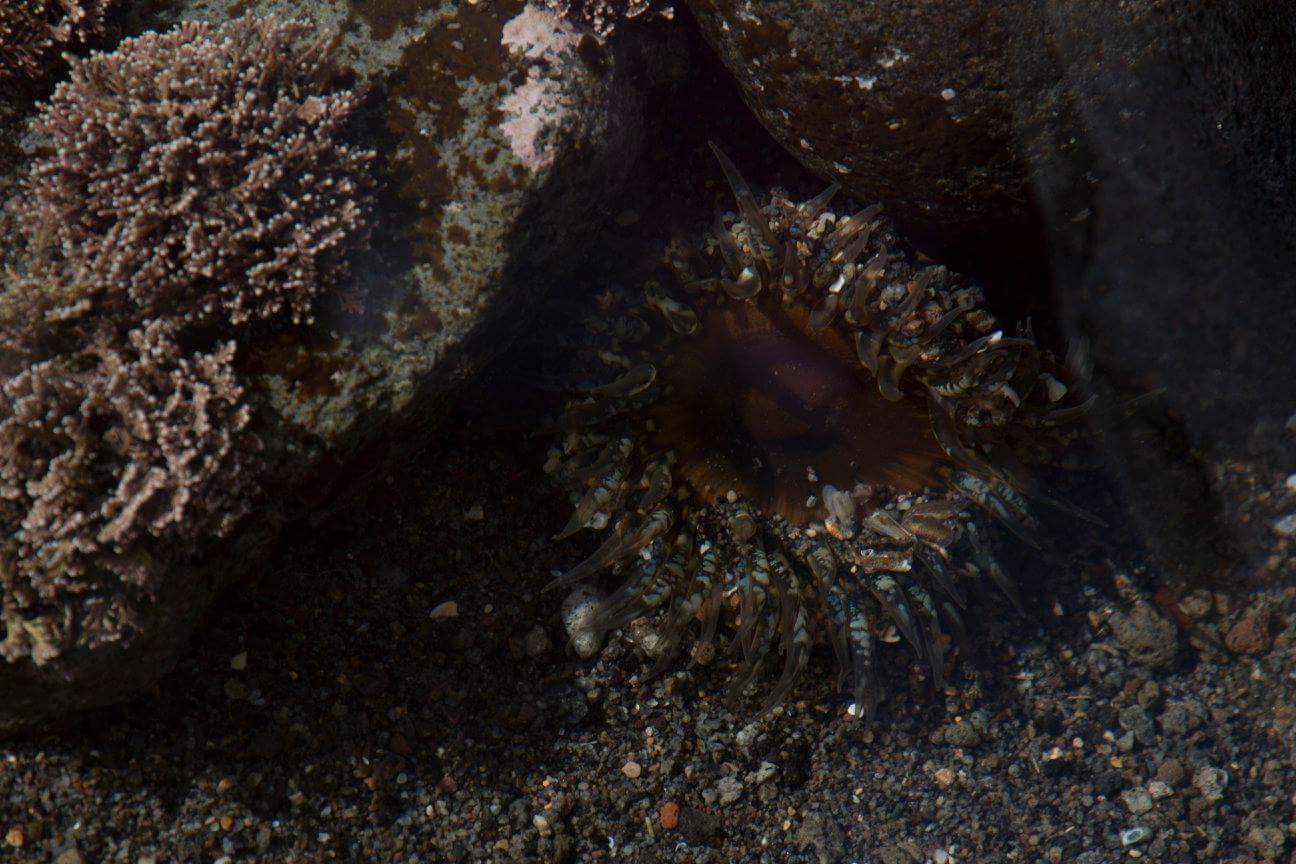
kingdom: Animalia
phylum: Cnidaria
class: Anthozoa
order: Actiniaria
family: Actiniidae
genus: Oulactis
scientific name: Oulactis muscosa
